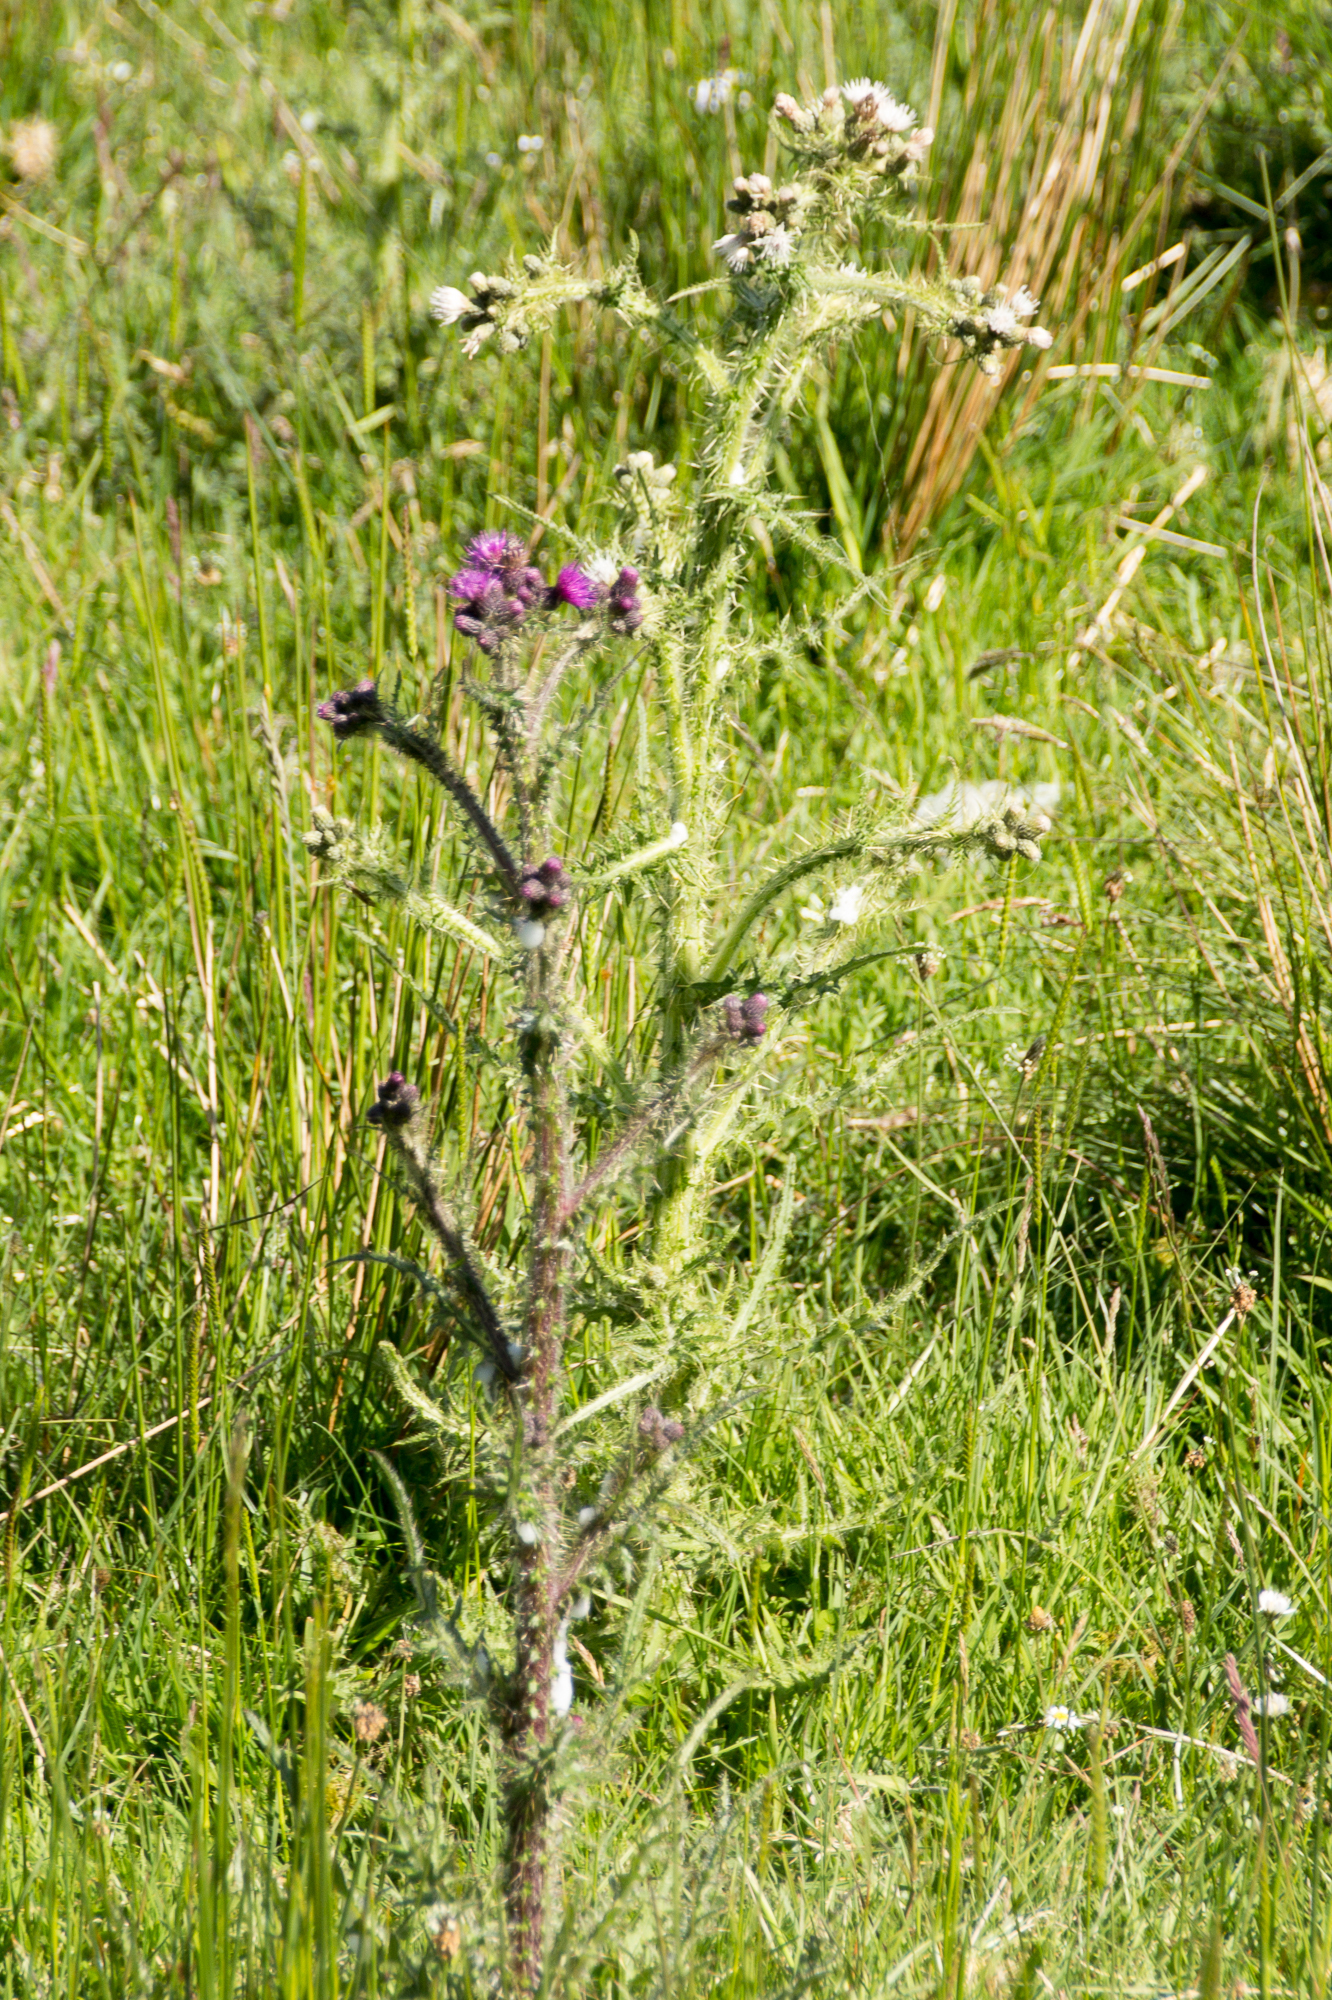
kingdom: Plantae
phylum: Tracheophyta
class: Magnoliopsida
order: Asterales
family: Asteraceae
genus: Cirsium
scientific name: Cirsium palustre
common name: Marsh thistle
